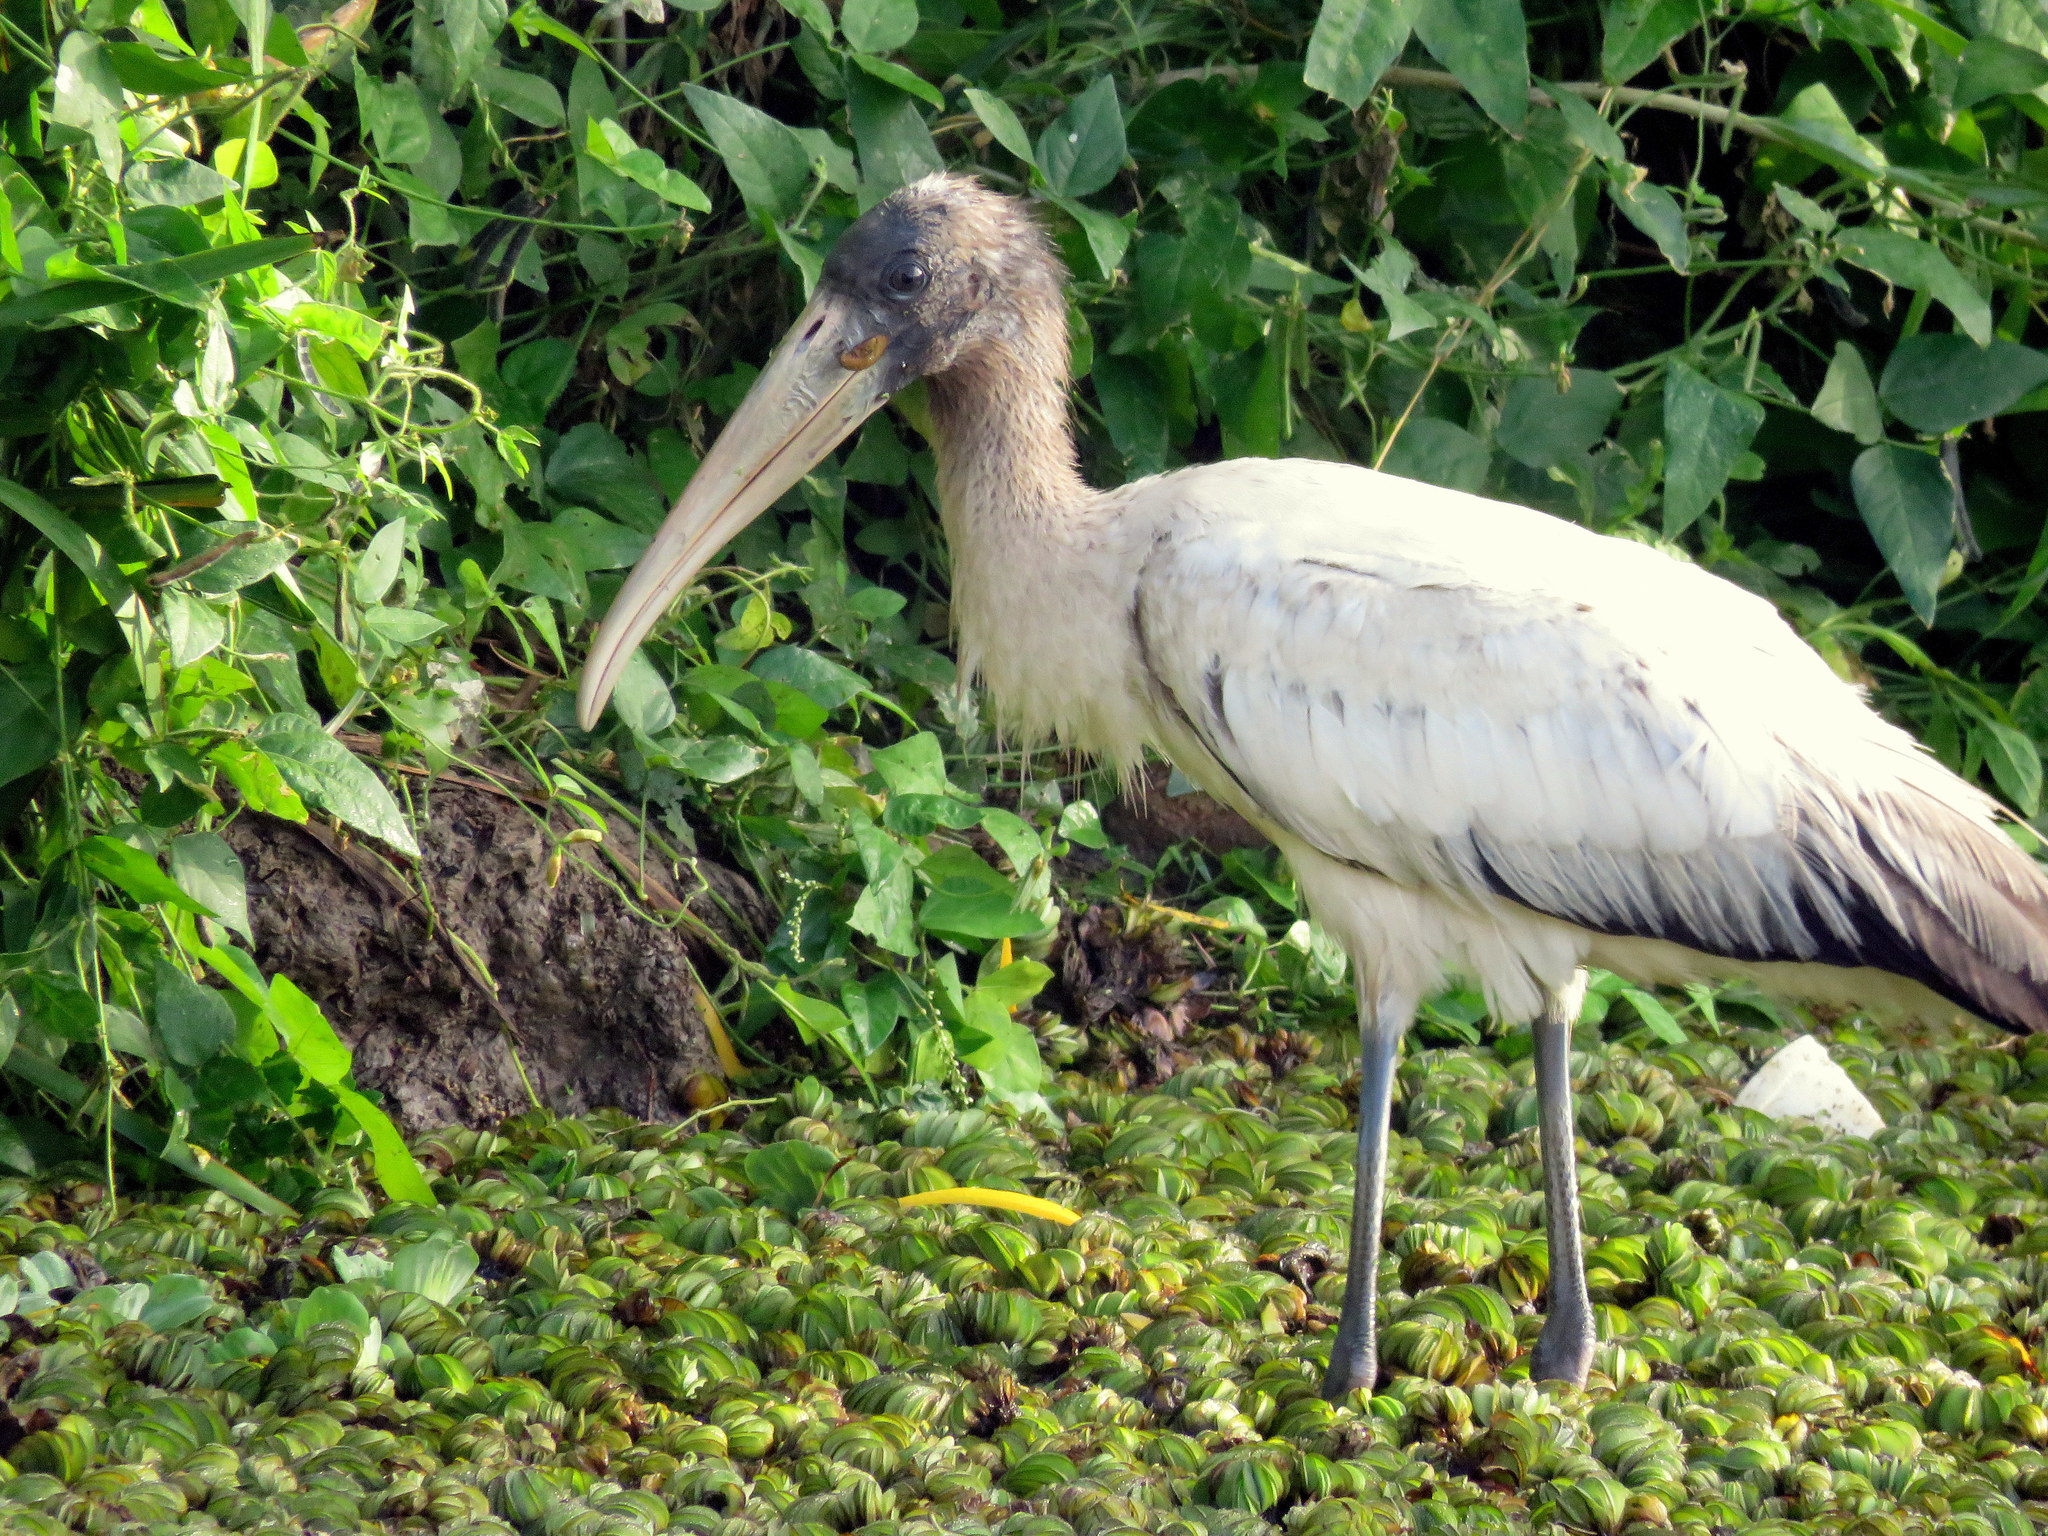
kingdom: Animalia
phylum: Chordata
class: Aves
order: Ciconiiformes
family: Ciconiidae
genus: Mycteria
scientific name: Mycteria americana
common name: Wood stork
